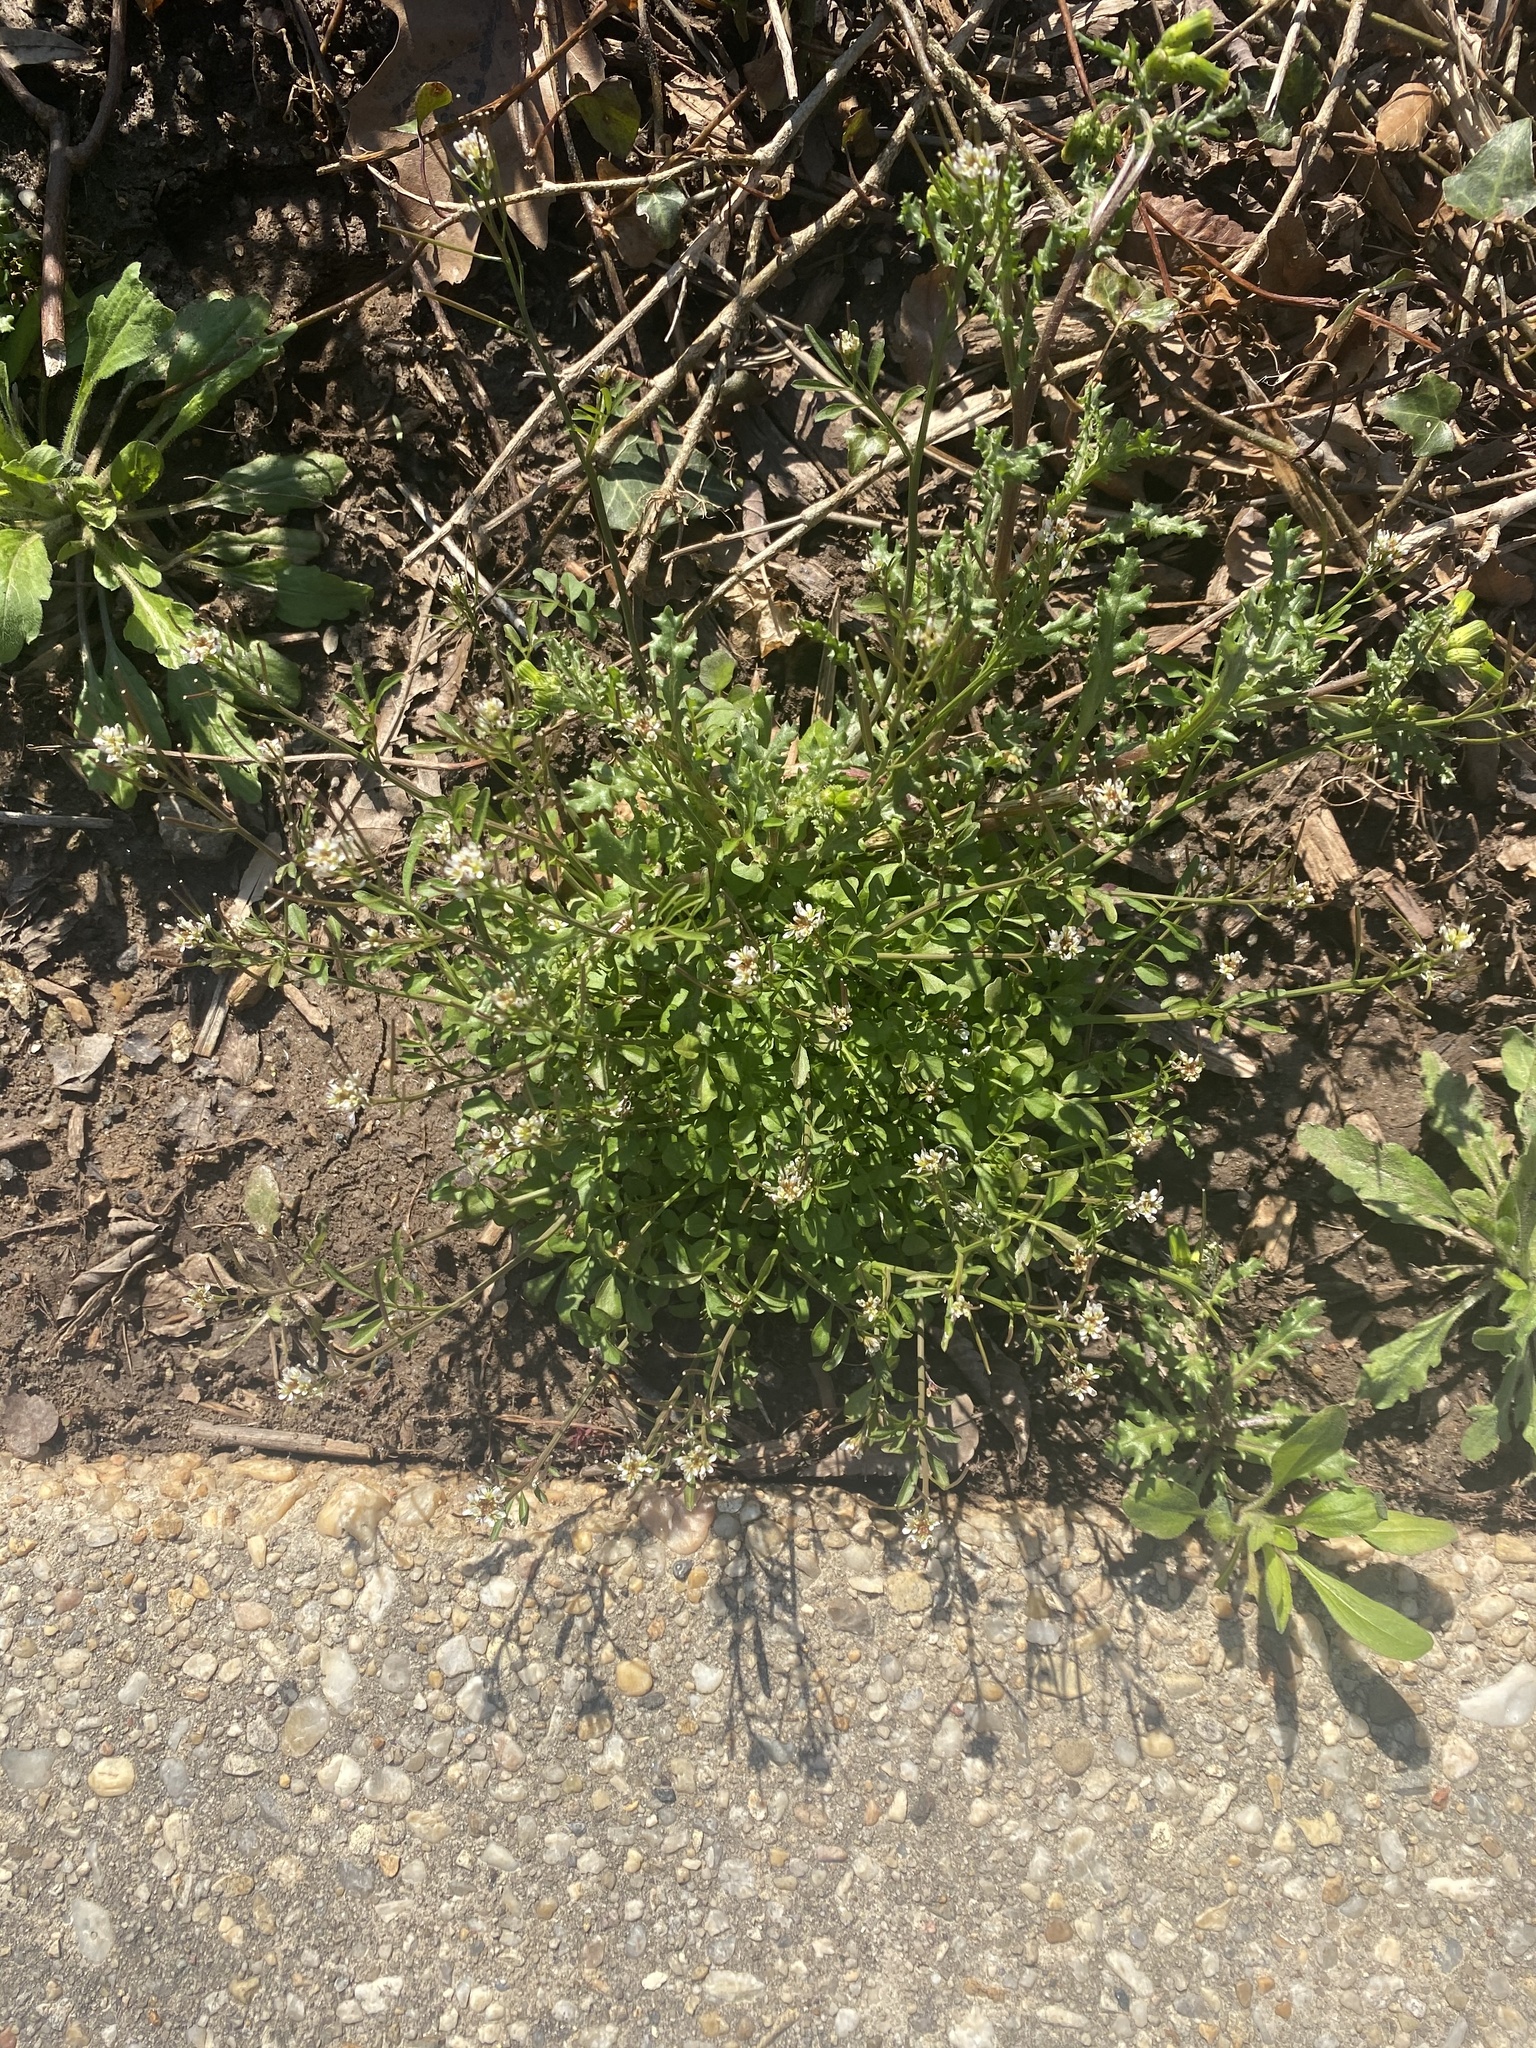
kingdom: Plantae
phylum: Tracheophyta
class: Magnoliopsida
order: Brassicales
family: Brassicaceae
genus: Cardamine
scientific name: Cardamine hirsuta
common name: Hairy bittercress
